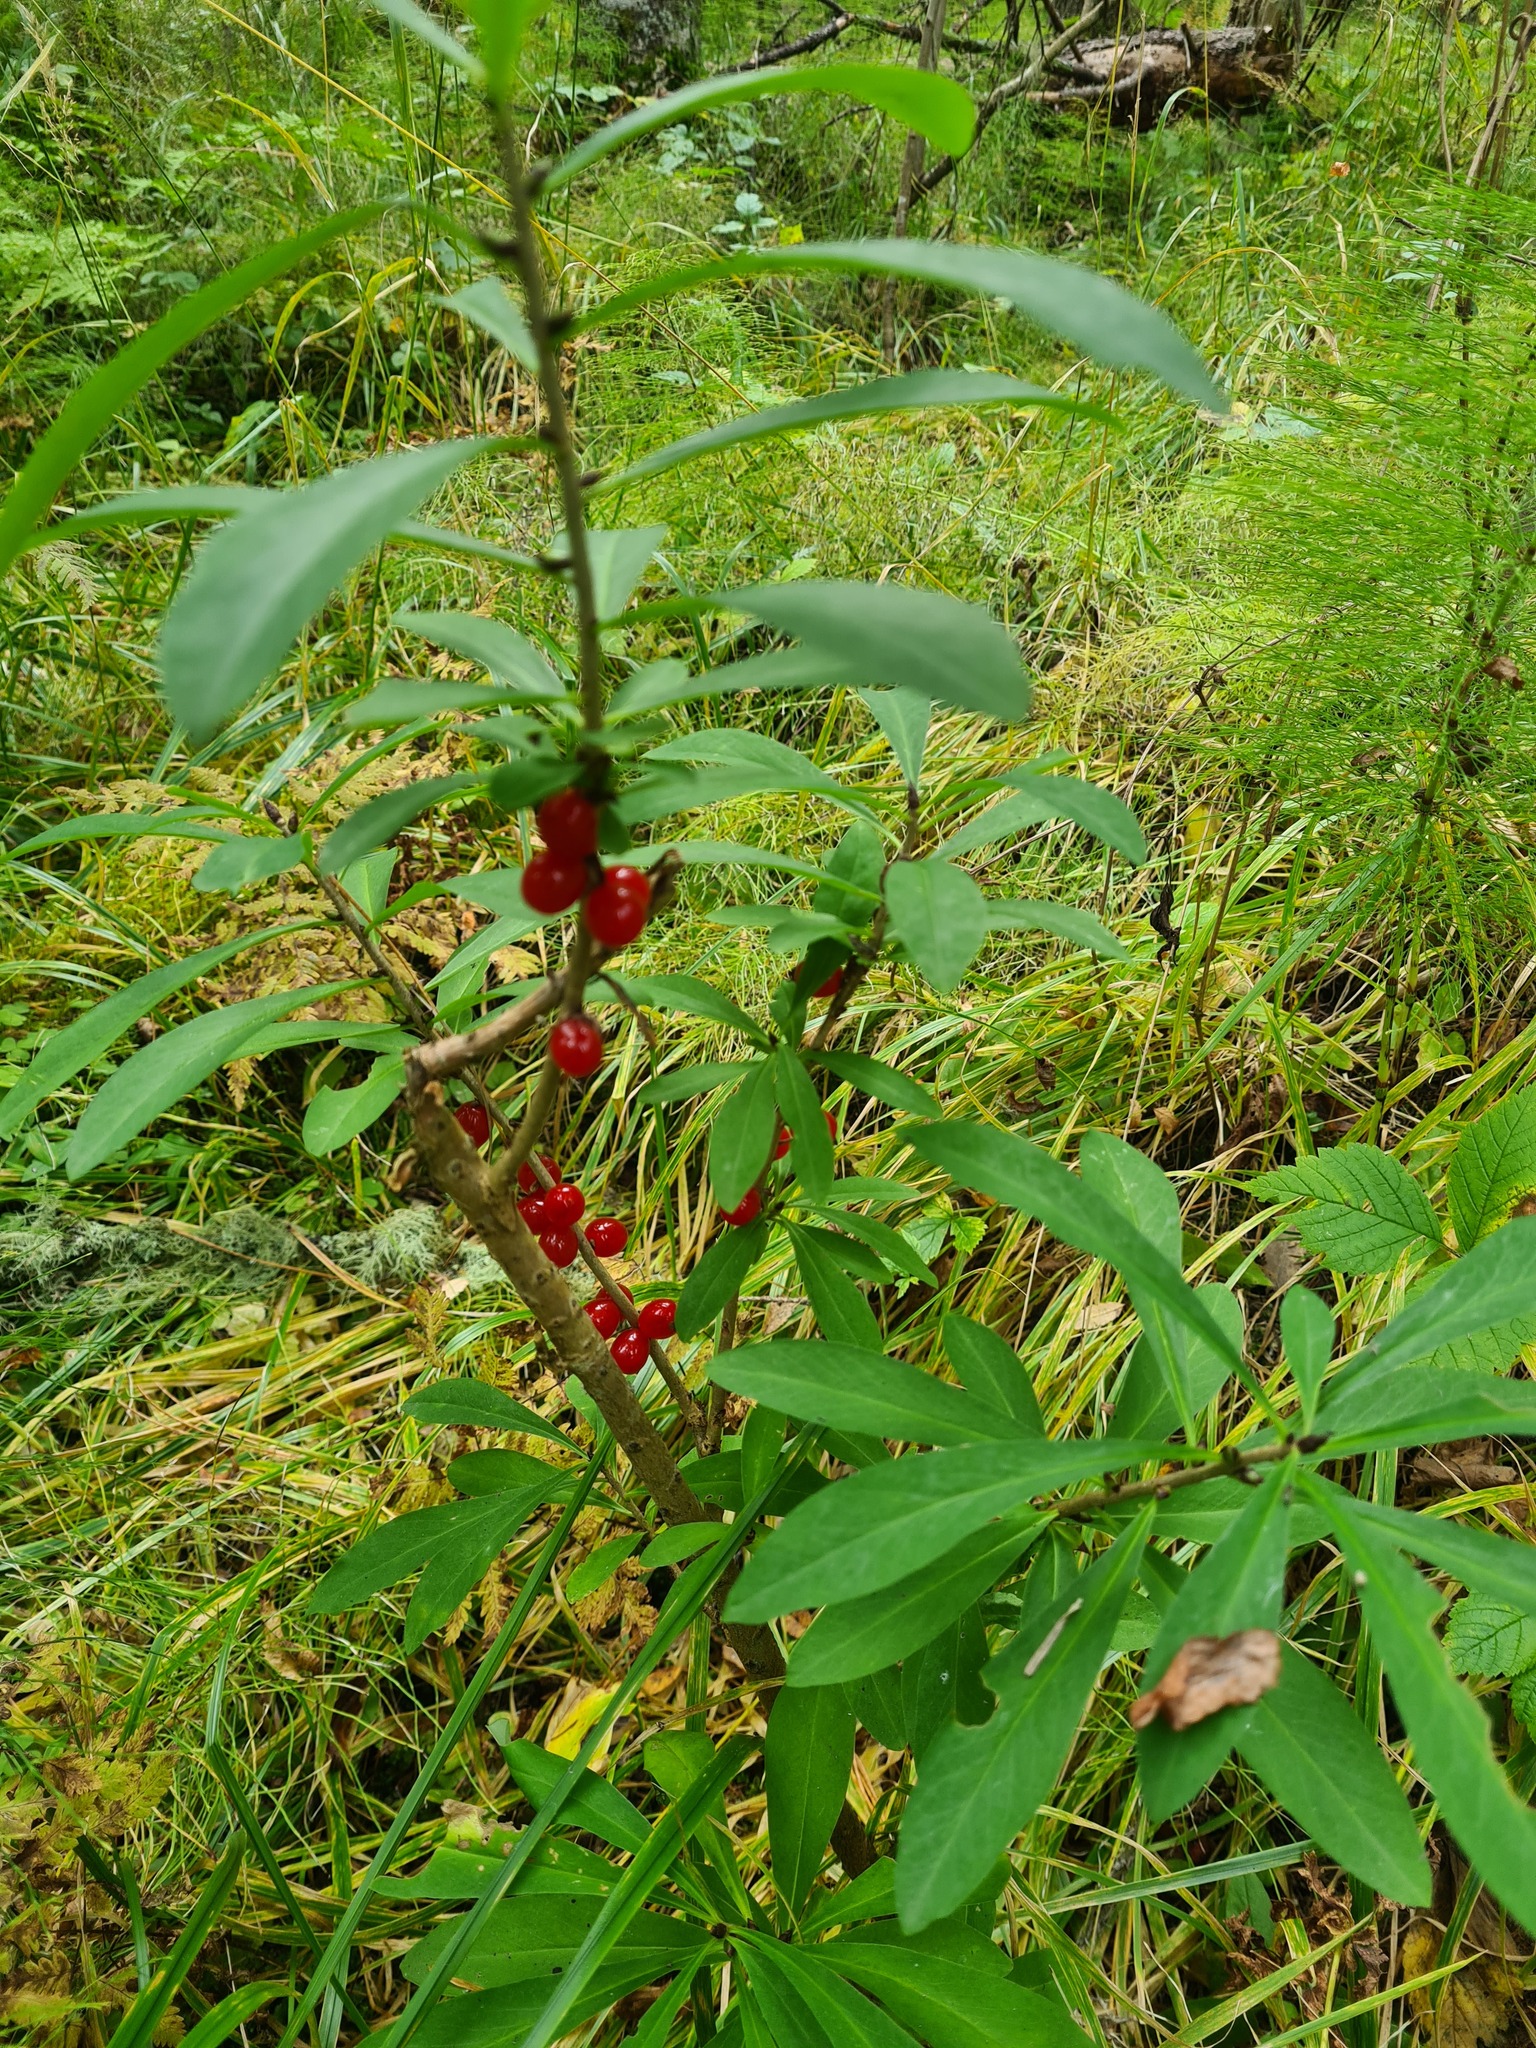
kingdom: Plantae
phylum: Tracheophyta
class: Magnoliopsida
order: Malvales
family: Thymelaeaceae
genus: Daphne
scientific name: Daphne mezereum
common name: Mezereon
